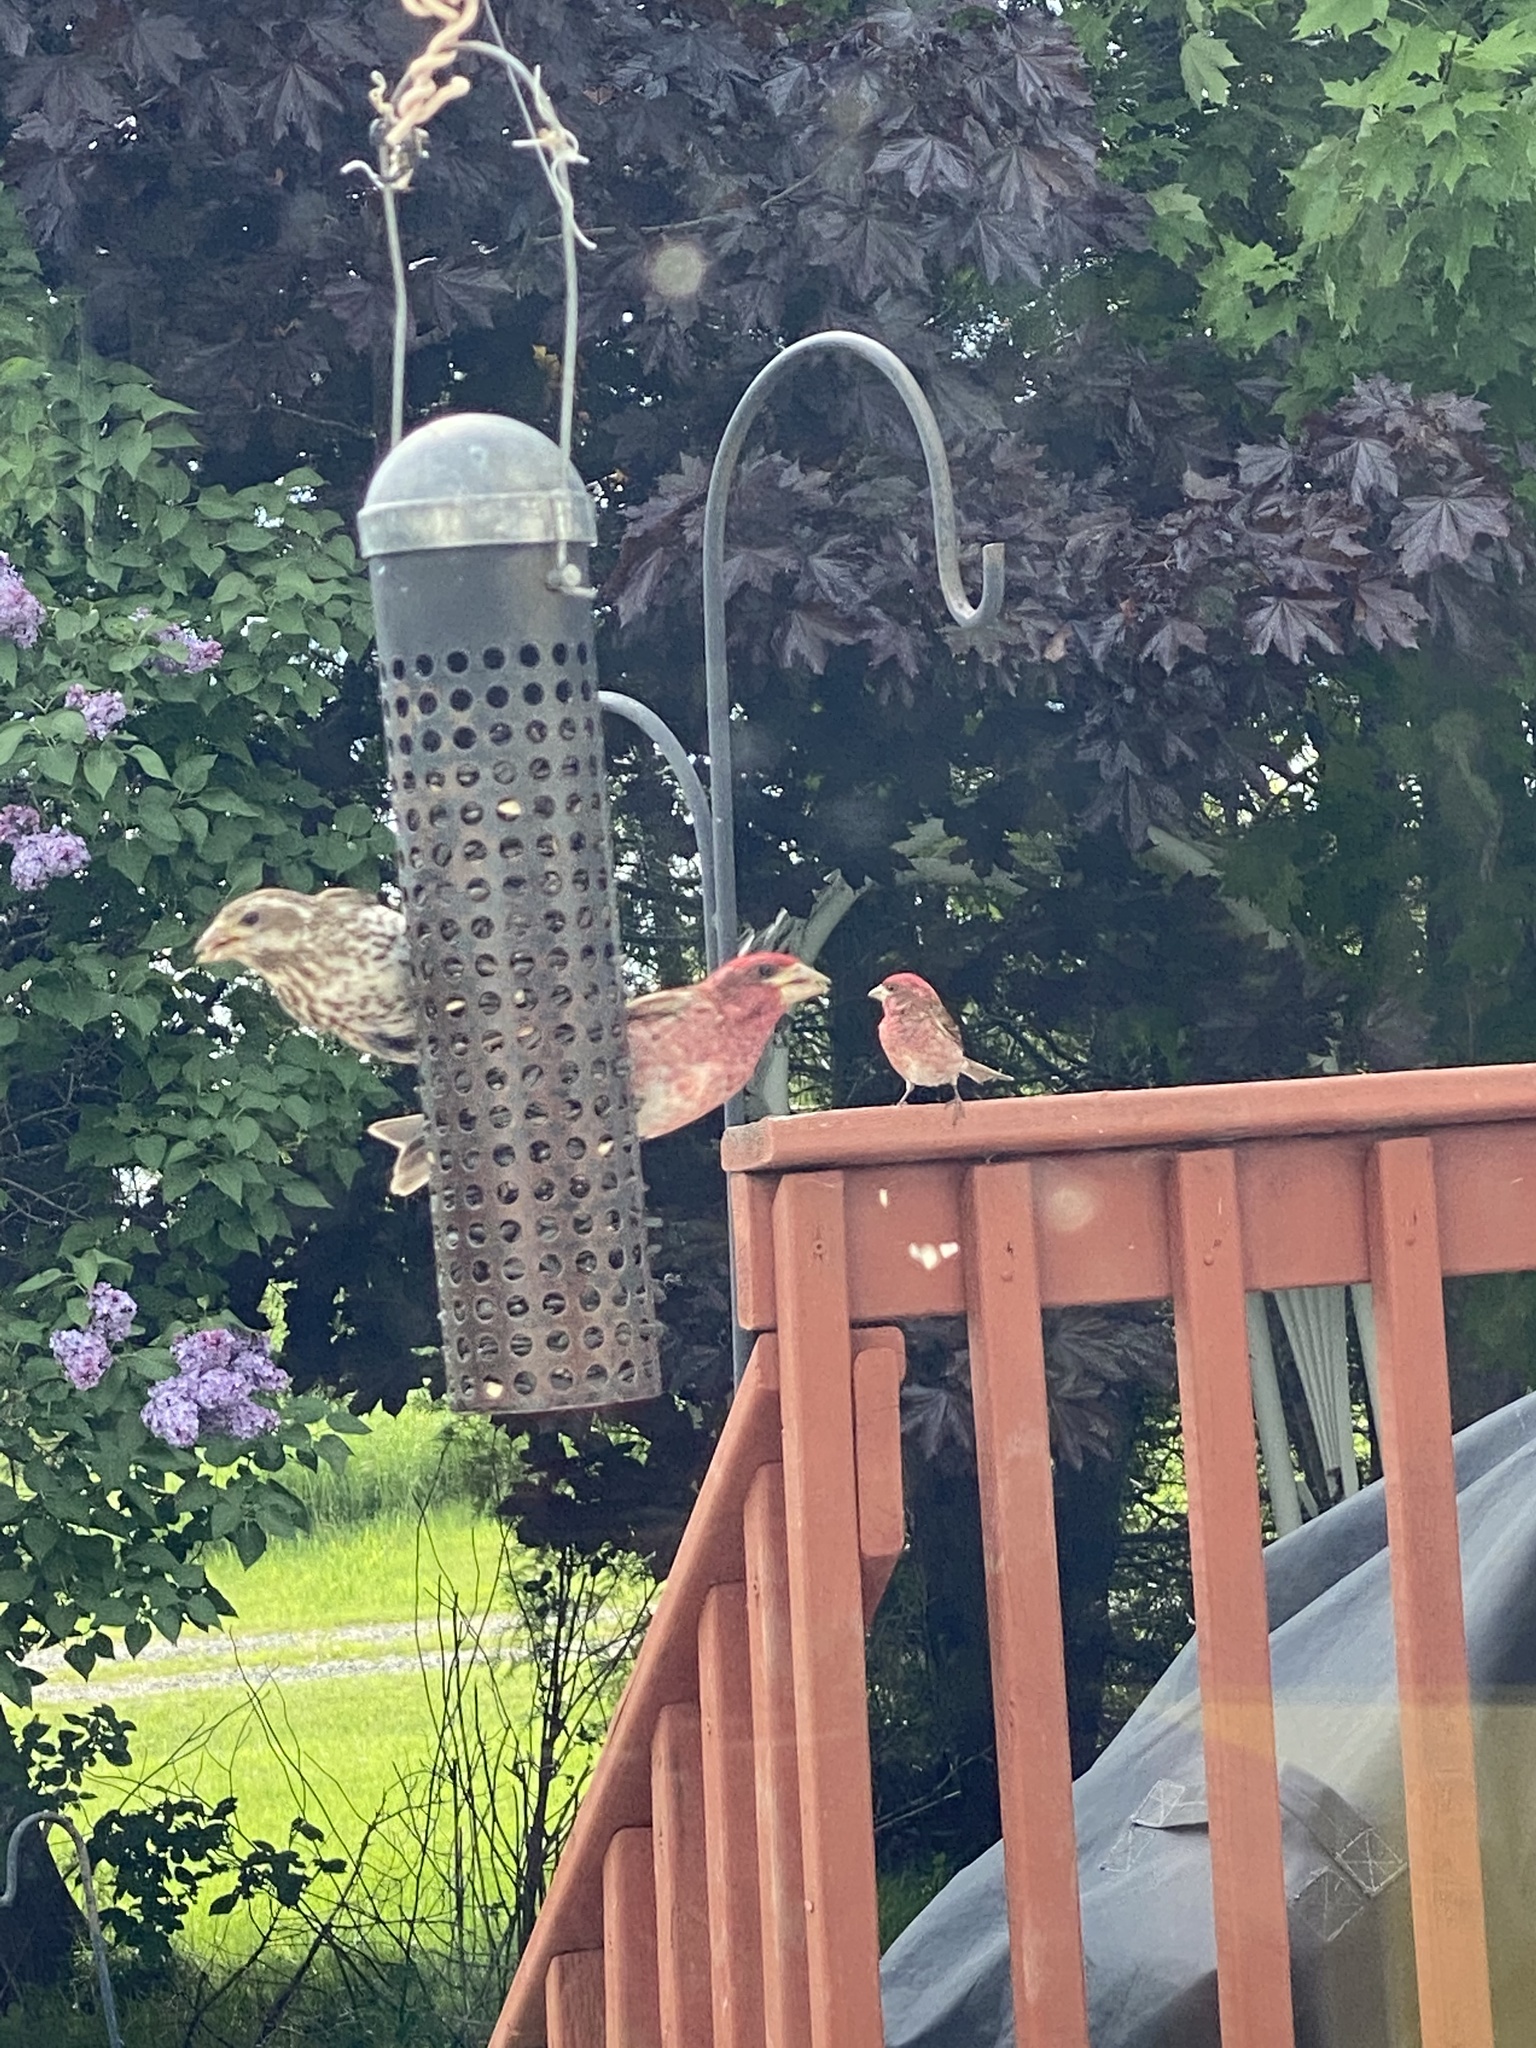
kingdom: Animalia
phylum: Chordata
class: Aves
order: Passeriformes
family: Fringillidae
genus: Haemorhous
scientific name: Haemorhous purpureus
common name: Purple finch
